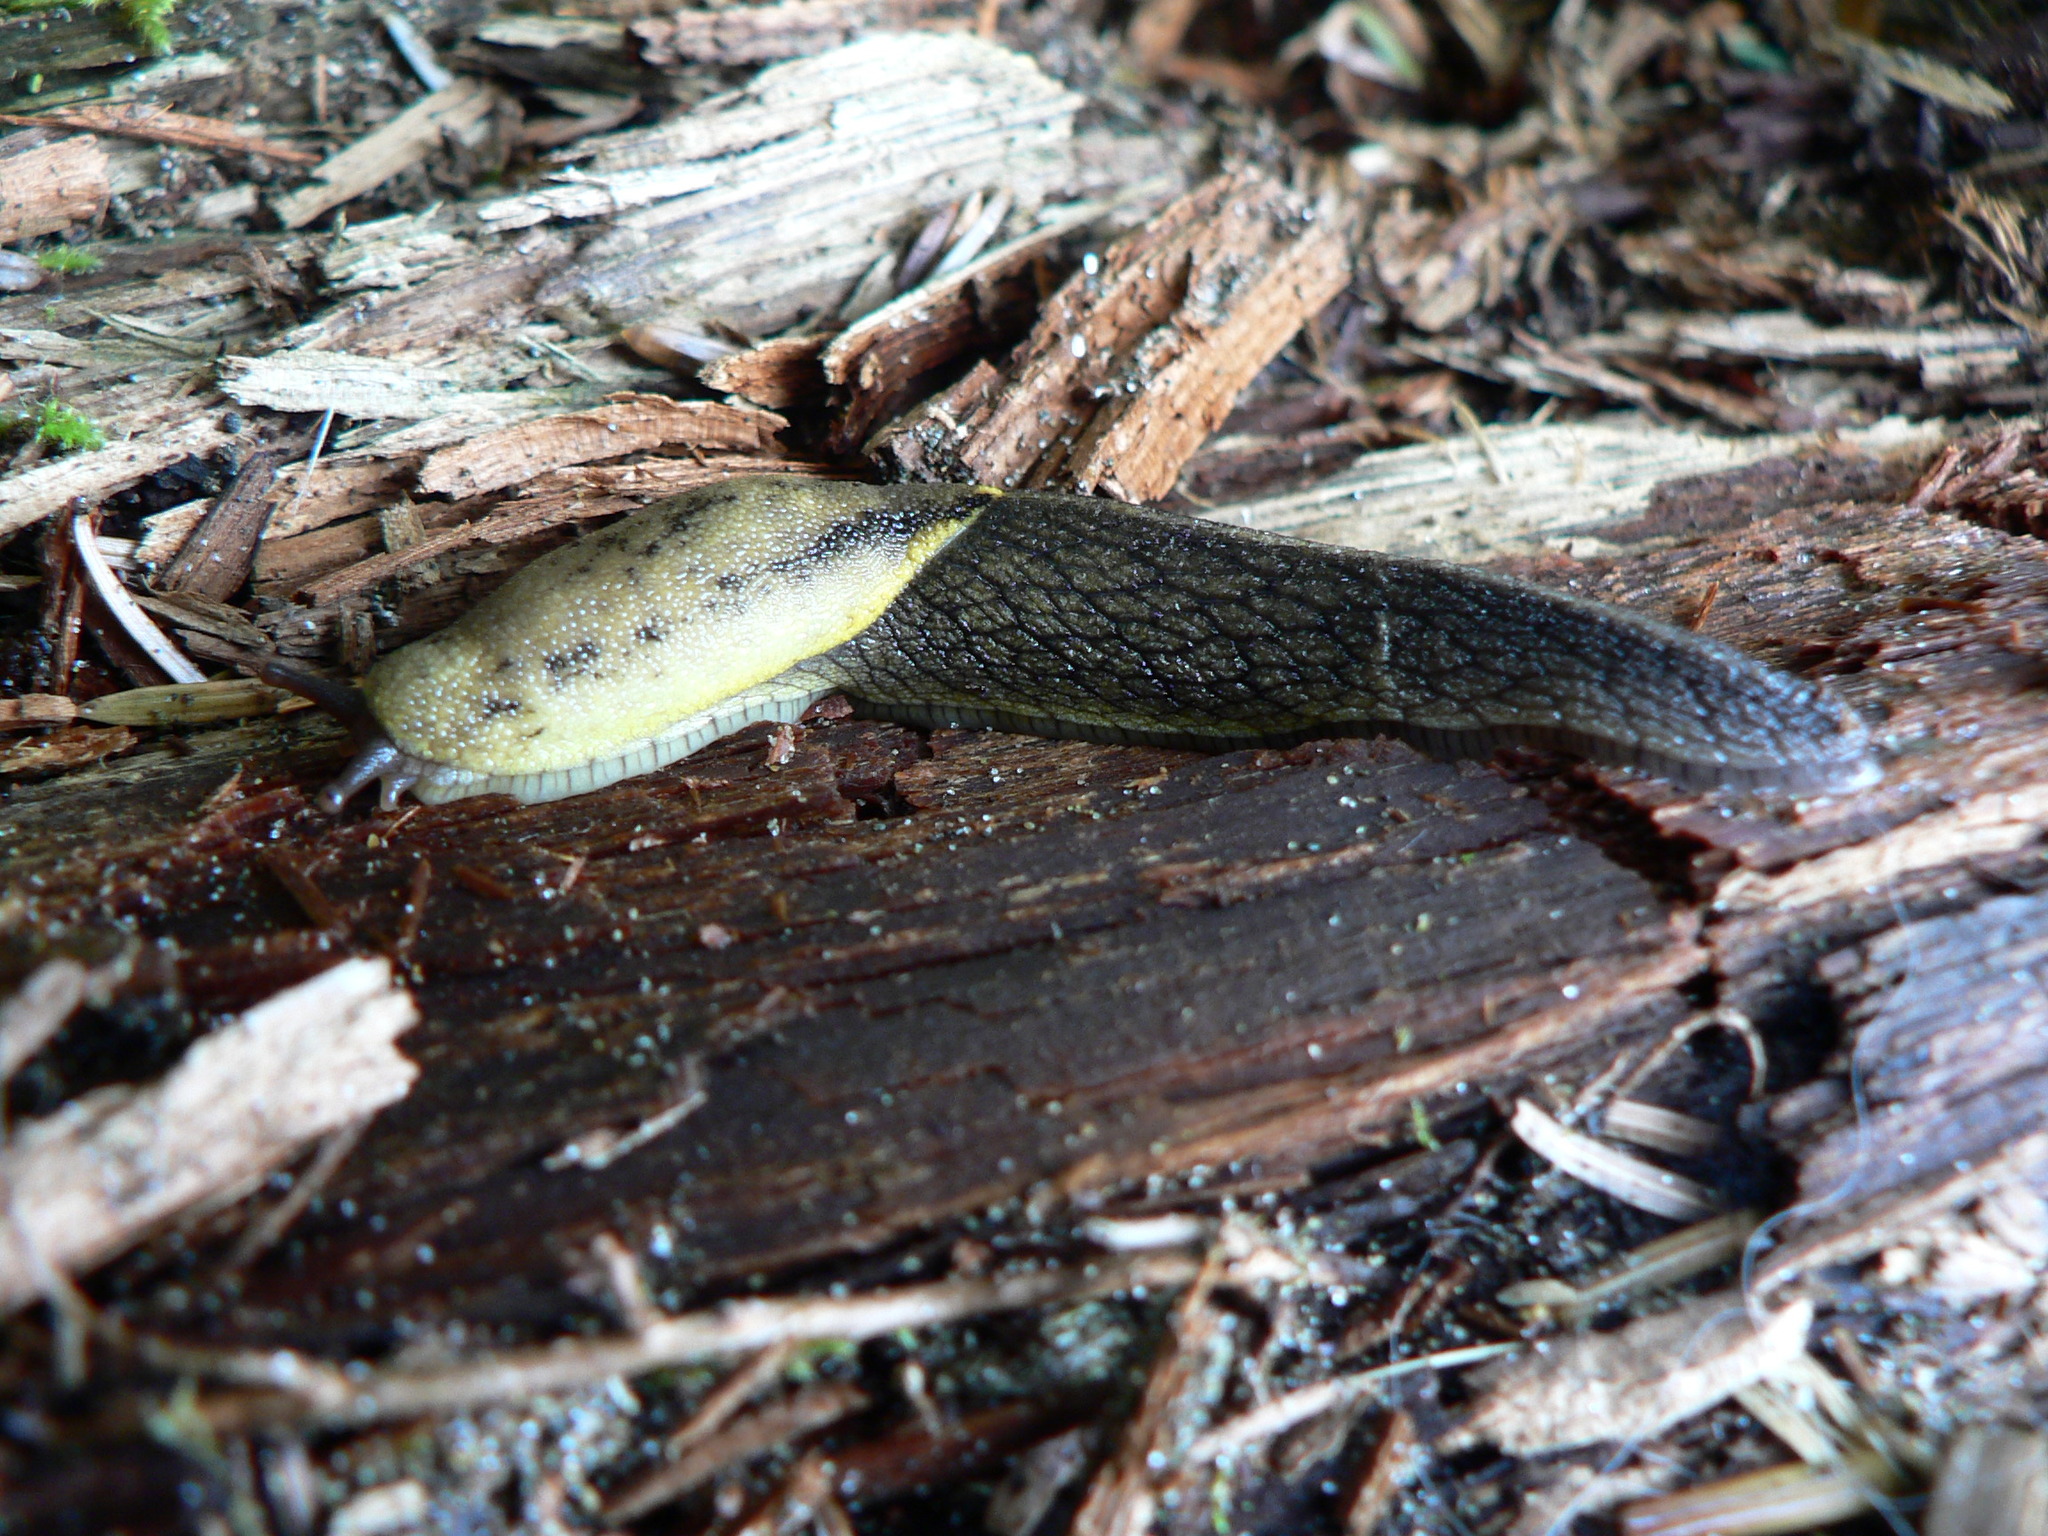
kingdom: Animalia
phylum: Mollusca
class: Gastropoda
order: Stylommatophora
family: Ariolimacidae
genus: Prophysaon
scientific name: Prophysaon foliolatum
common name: Yellow-bordered taildropper
